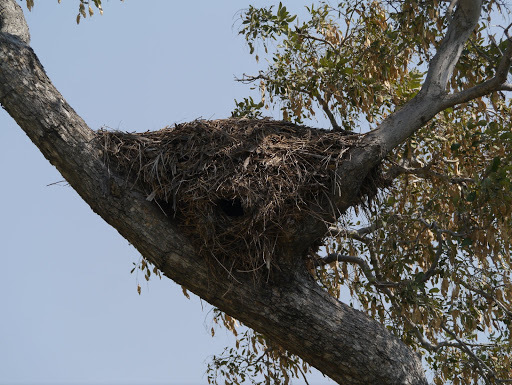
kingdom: Animalia
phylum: Chordata
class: Aves
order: Pelecaniformes
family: Scopidae
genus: Scopus
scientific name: Scopus umbretta
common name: Hamerkop
